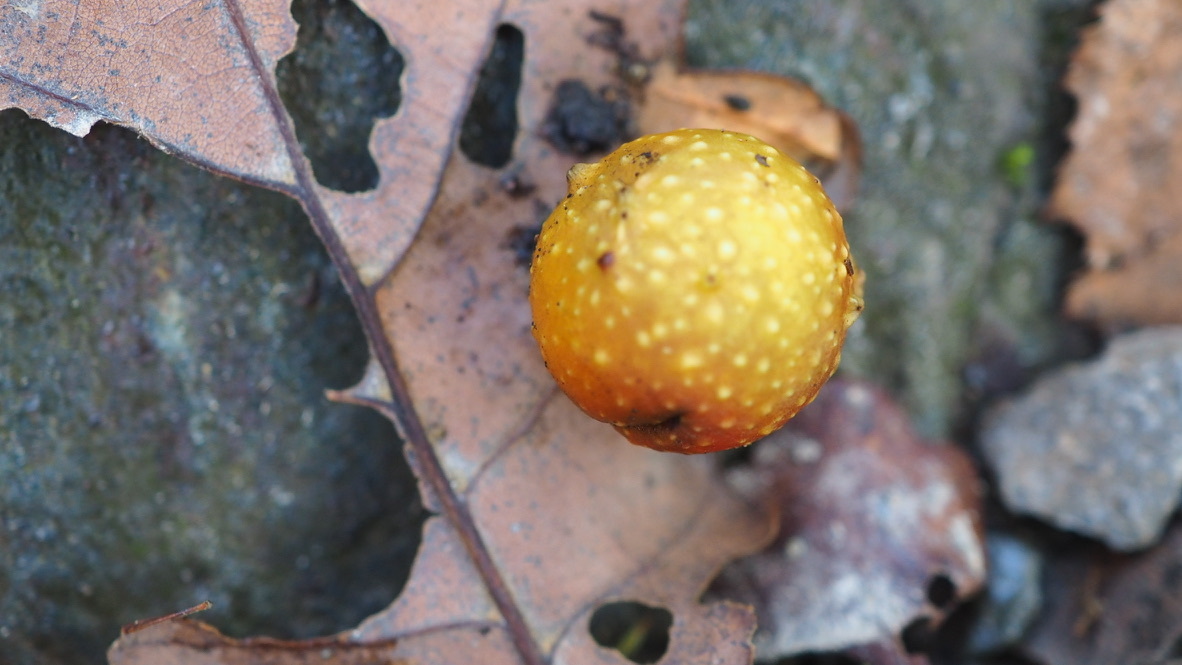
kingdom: Animalia
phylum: Arthropoda
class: Insecta
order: Hymenoptera
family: Cynipidae
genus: Cynips
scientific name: Cynips quercusfolii
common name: Cherry gall
